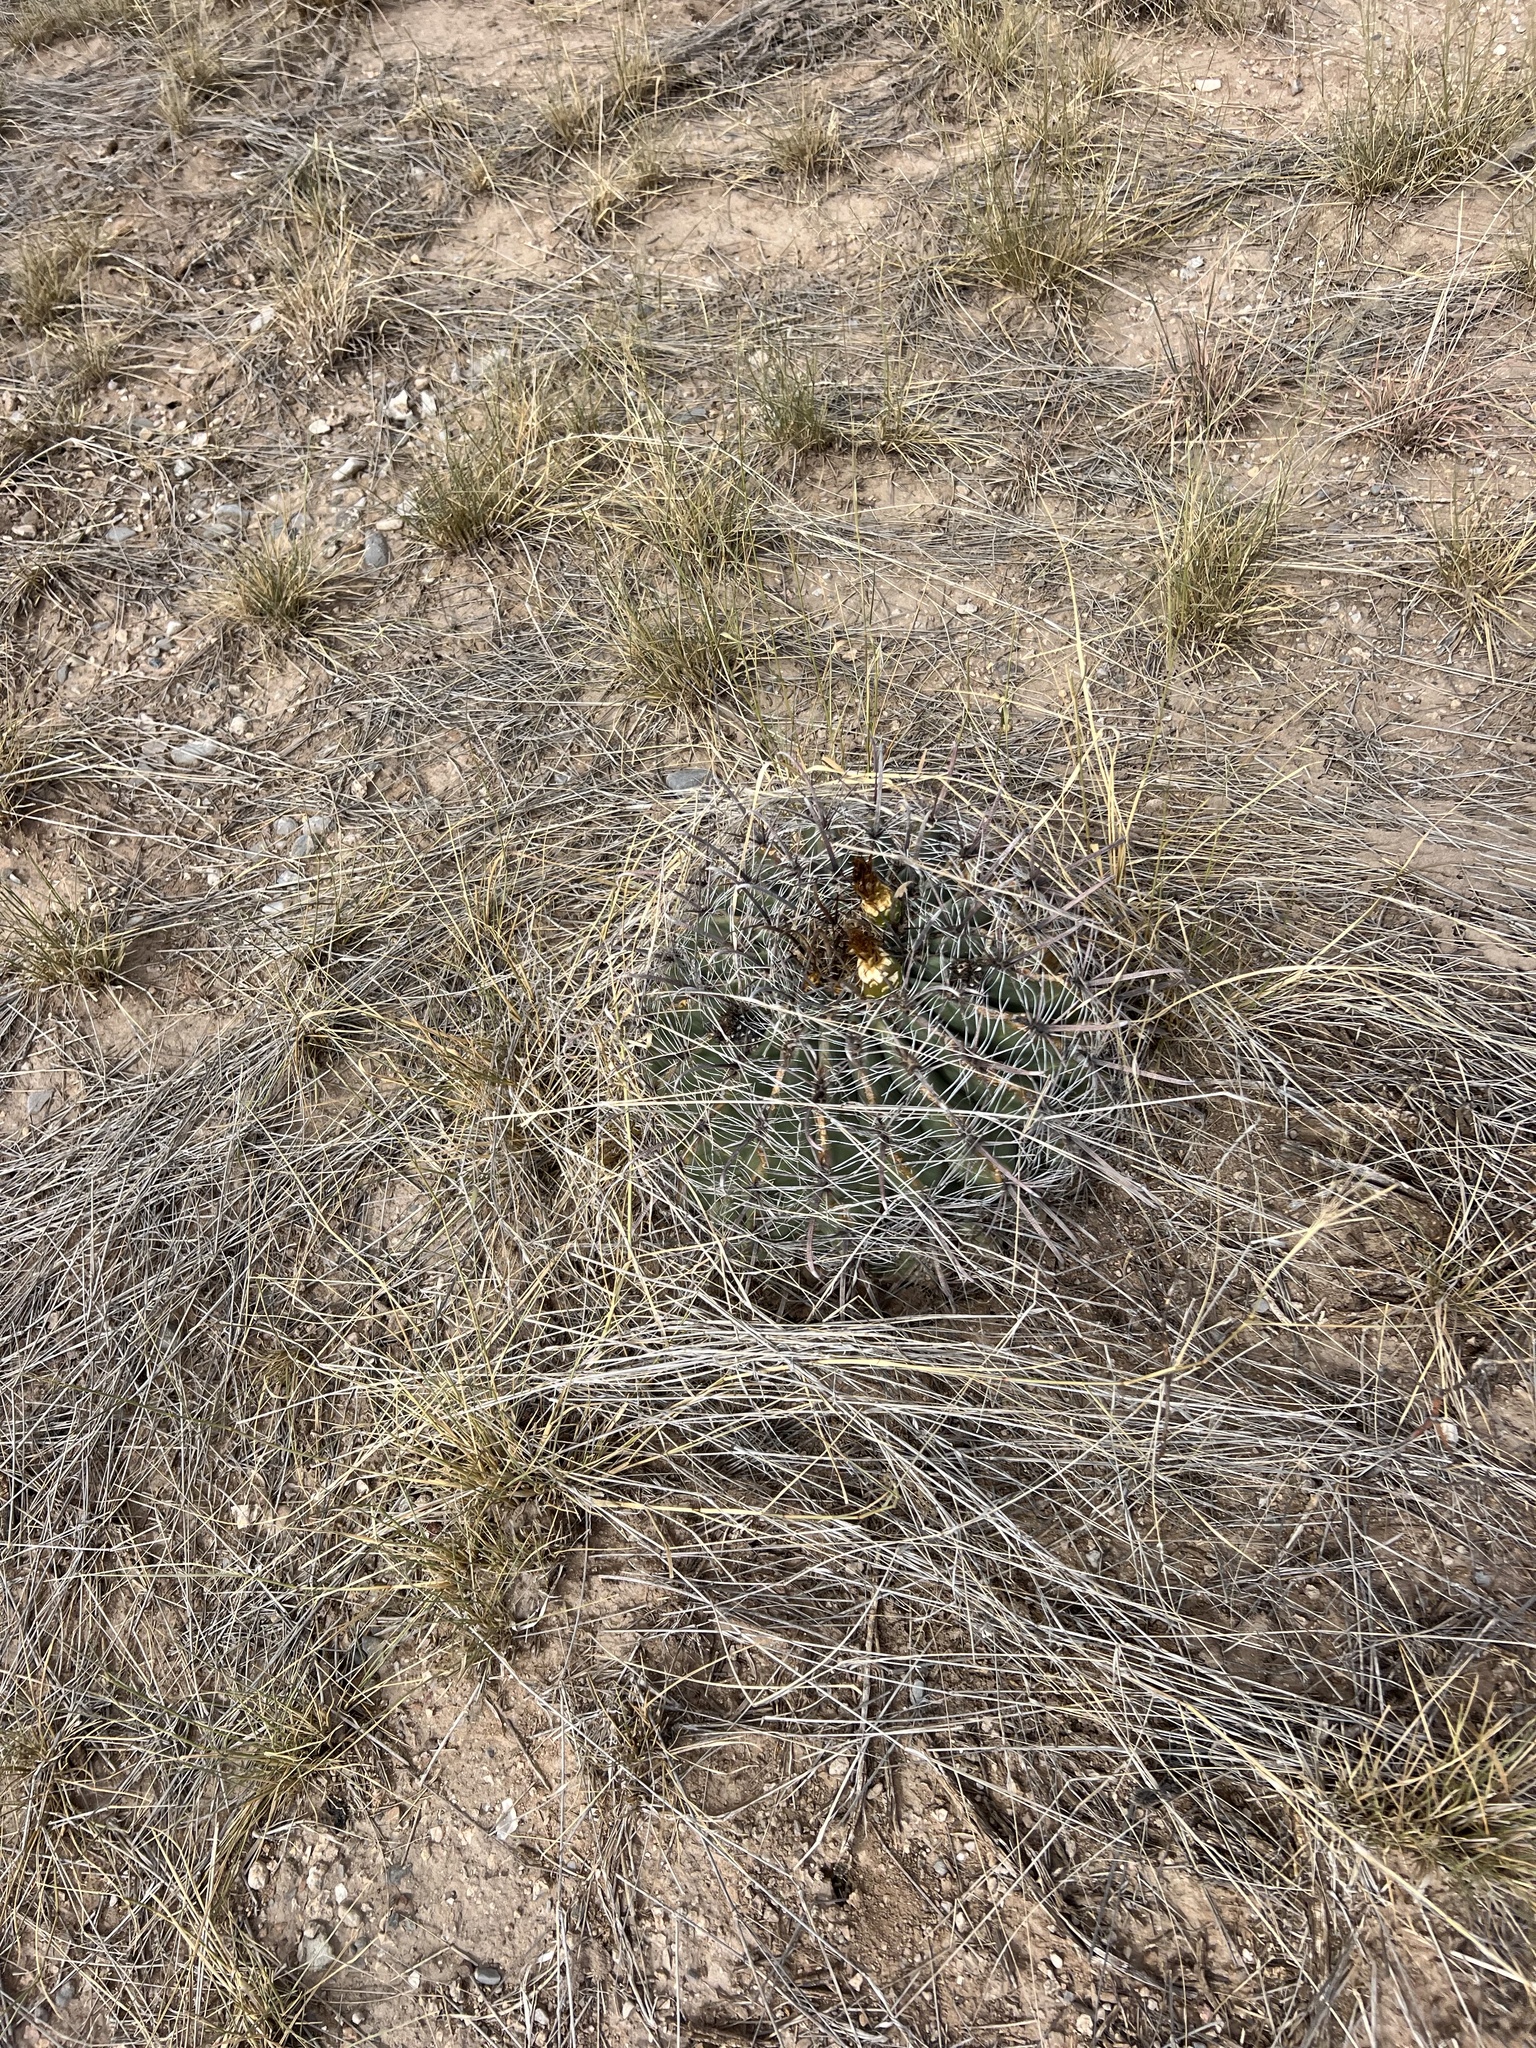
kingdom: Plantae
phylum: Tracheophyta
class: Magnoliopsida
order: Caryophyllales
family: Cactaceae
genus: Ferocactus
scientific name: Ferocactus wislizeni
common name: Candy barrel cactus
